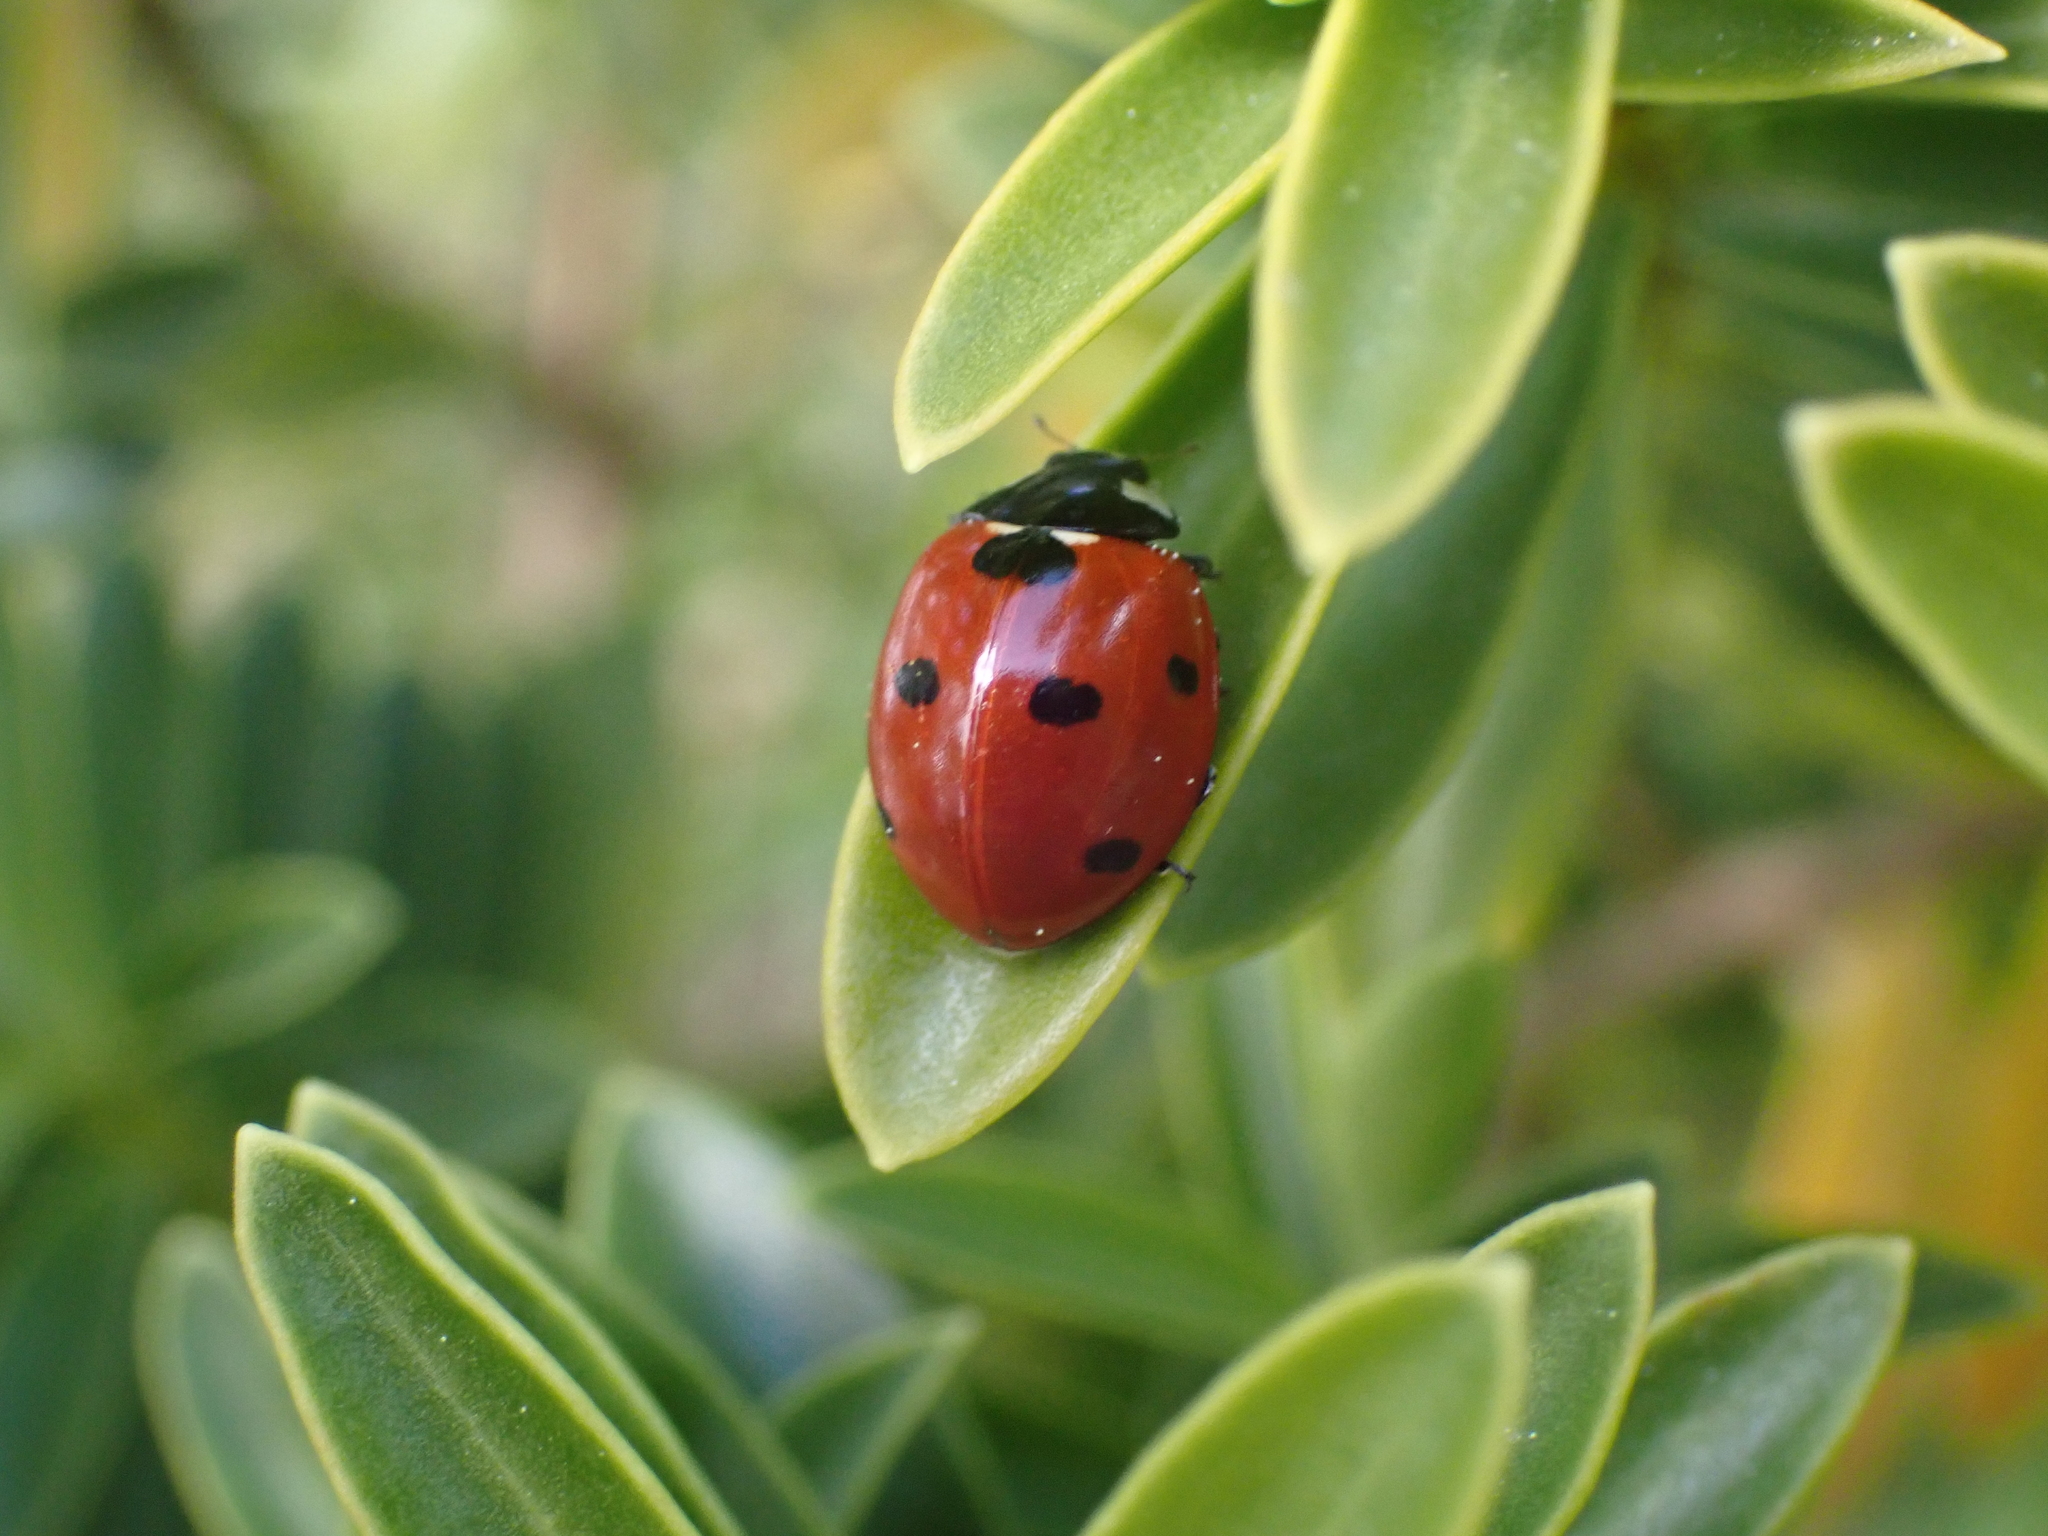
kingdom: Animalia
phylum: Arthropoda
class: Insecta
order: Coleoptera
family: Coccinellidae
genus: Coccinella
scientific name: Coccinella septempunctata
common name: Sevenspotted lady beetle
